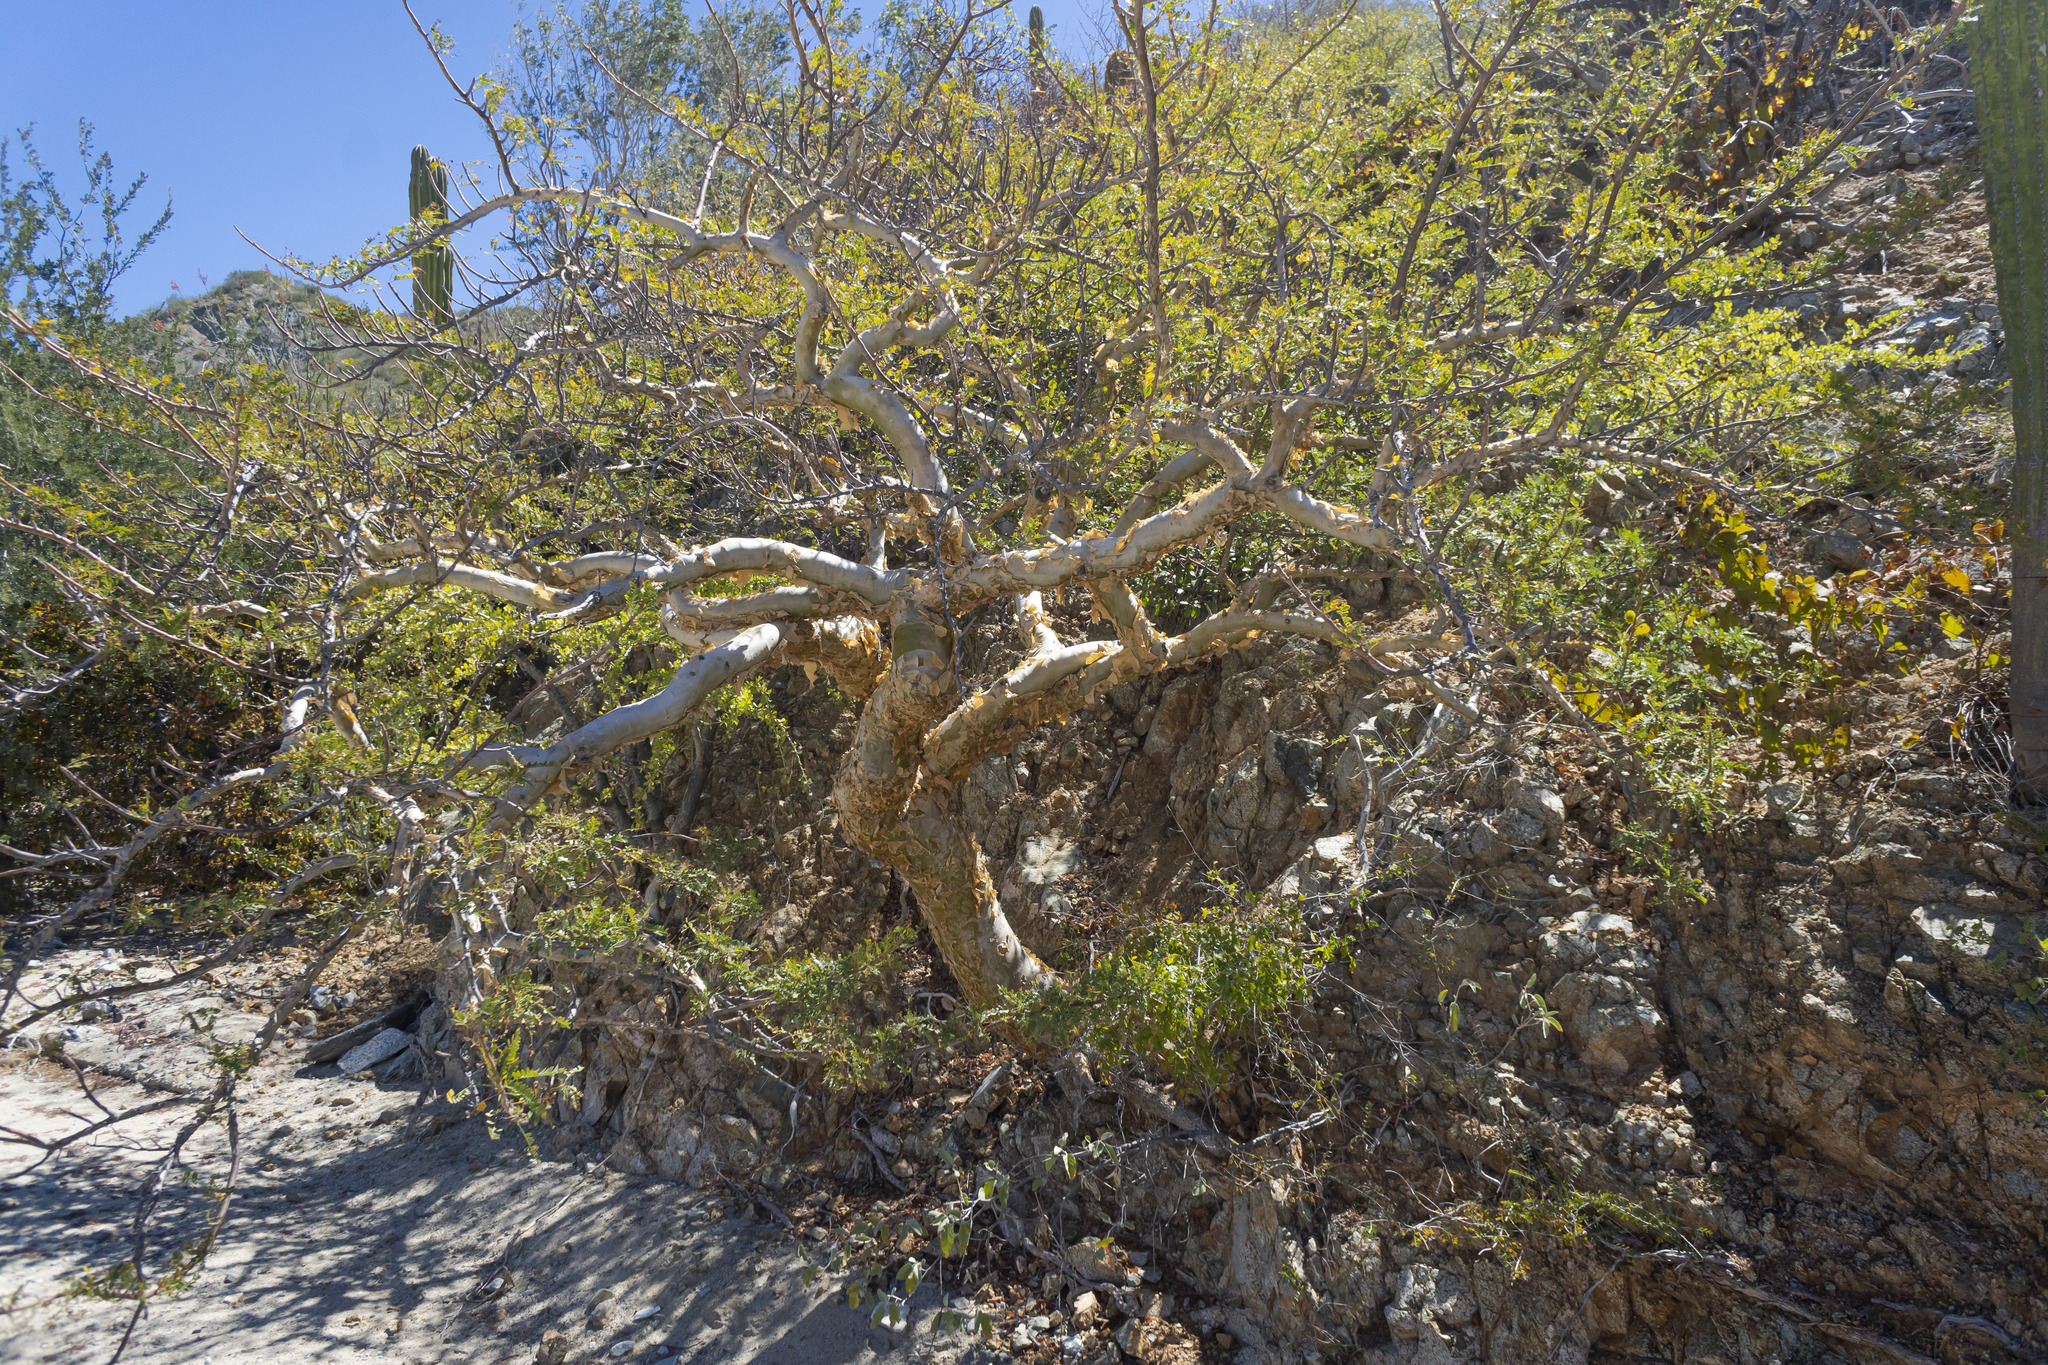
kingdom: Plantae
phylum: Tracheophyta
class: Magnoliopsida
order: Sapindales
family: Burseraceae
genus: Bursera
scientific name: Bursera microphylla
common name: Elephant tree
